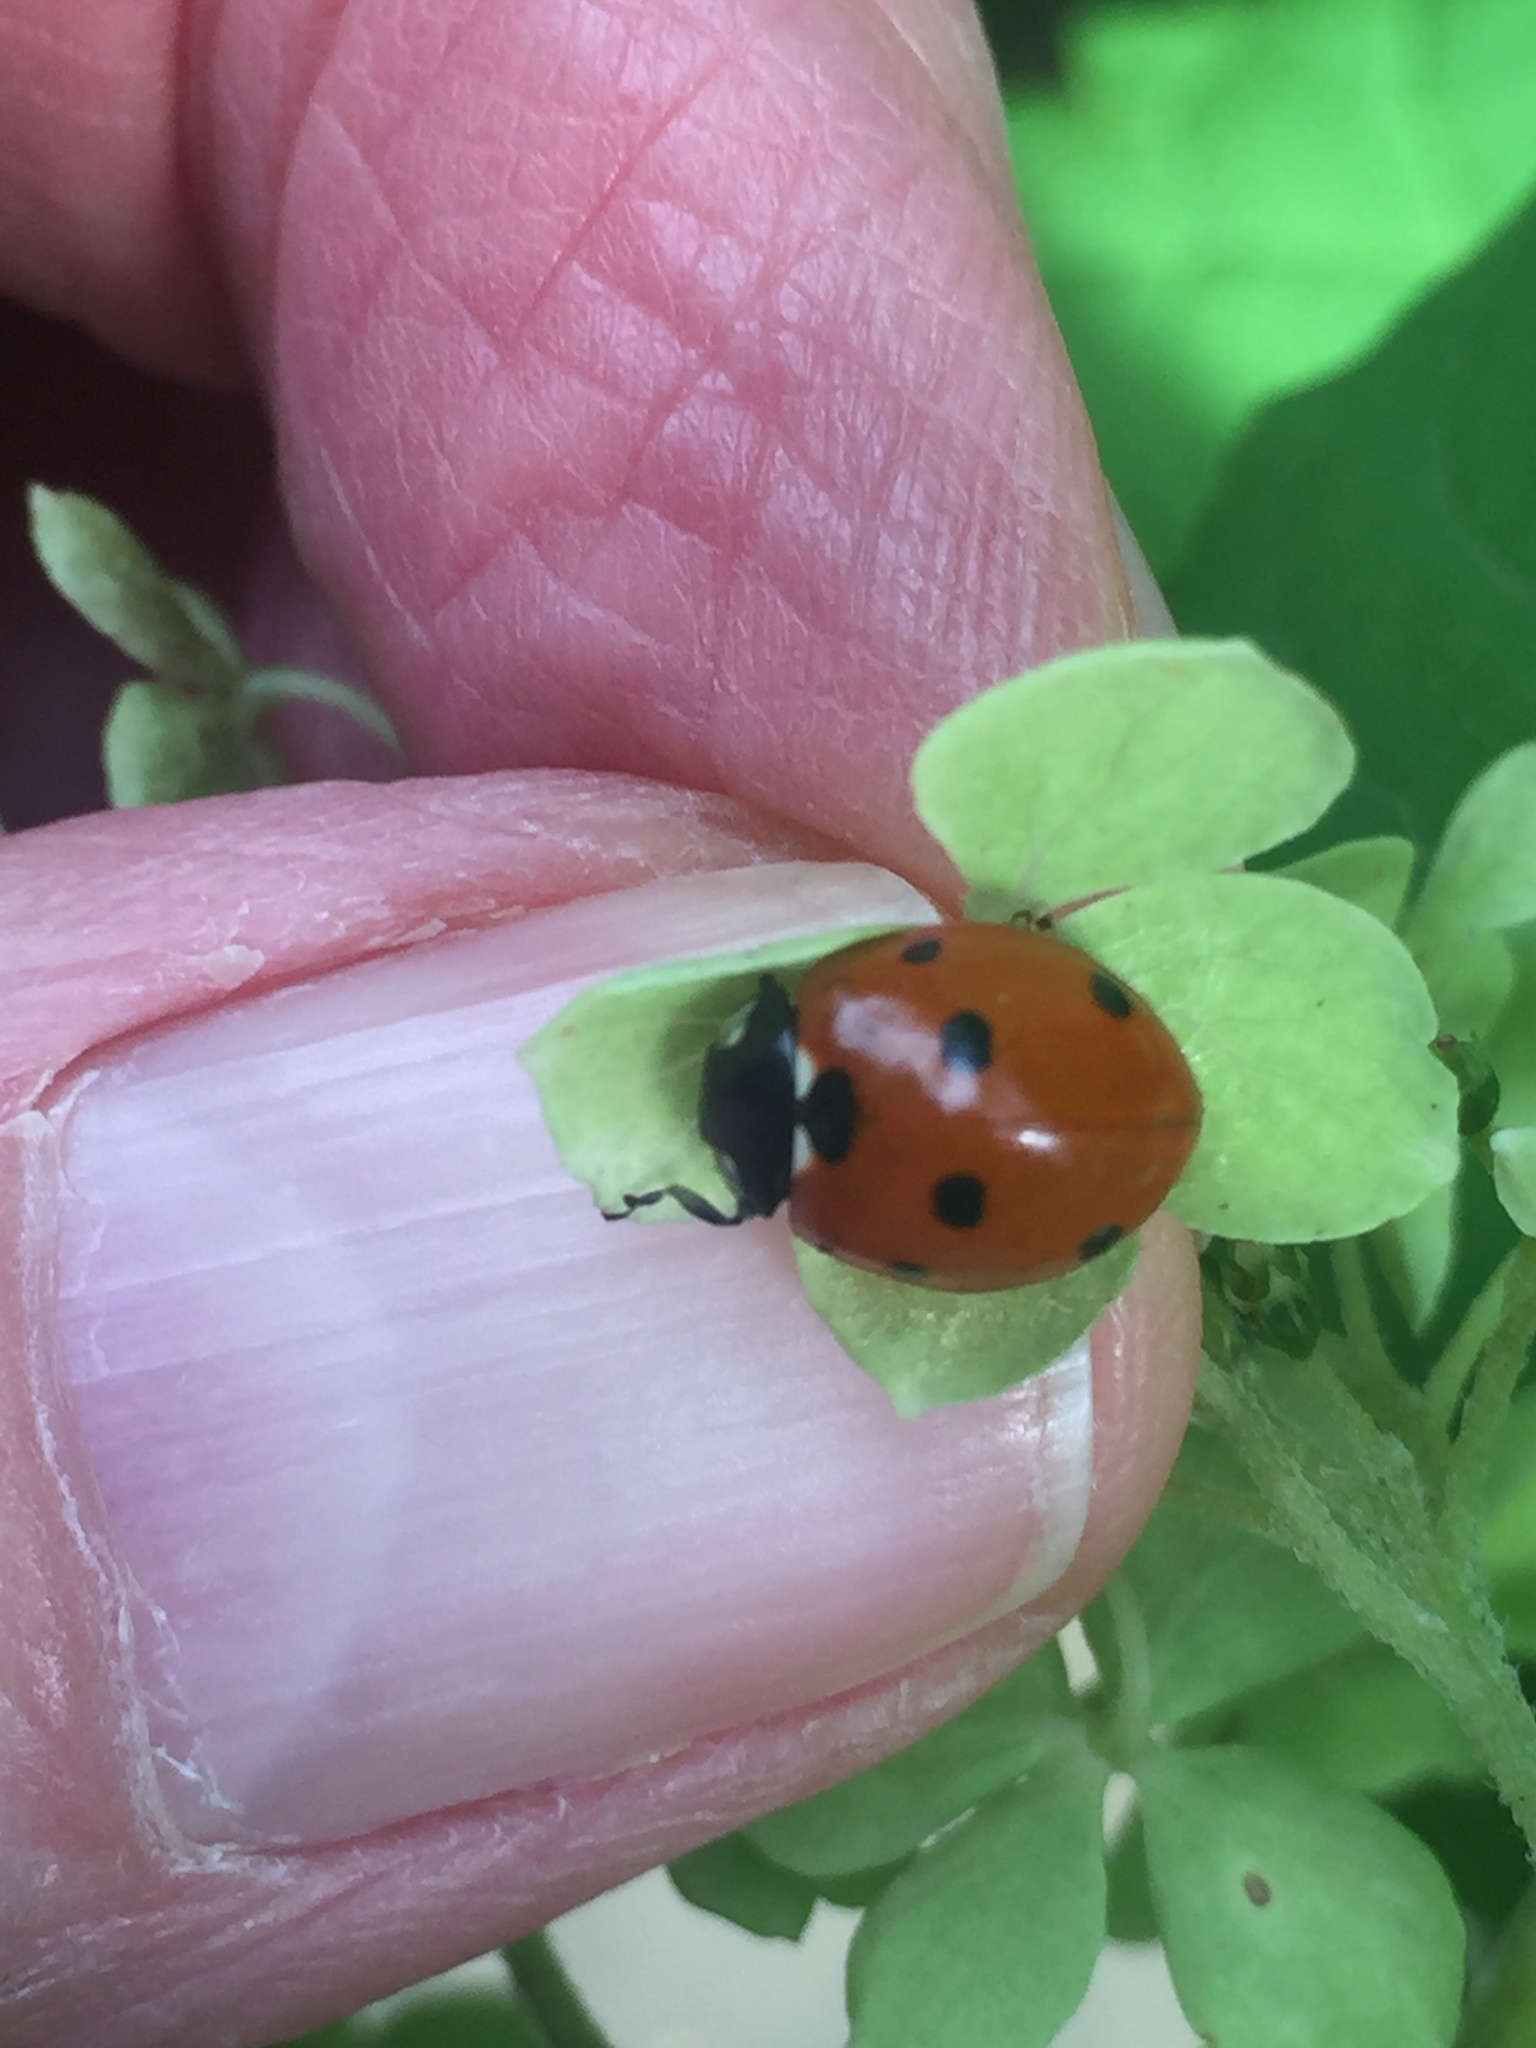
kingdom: Animalia
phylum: Arthropoda
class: Insecta
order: Coleoptera
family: Coccinellidae
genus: Coccinella
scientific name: Coccinella septempunctata
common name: Sevenspotted lady beetle
